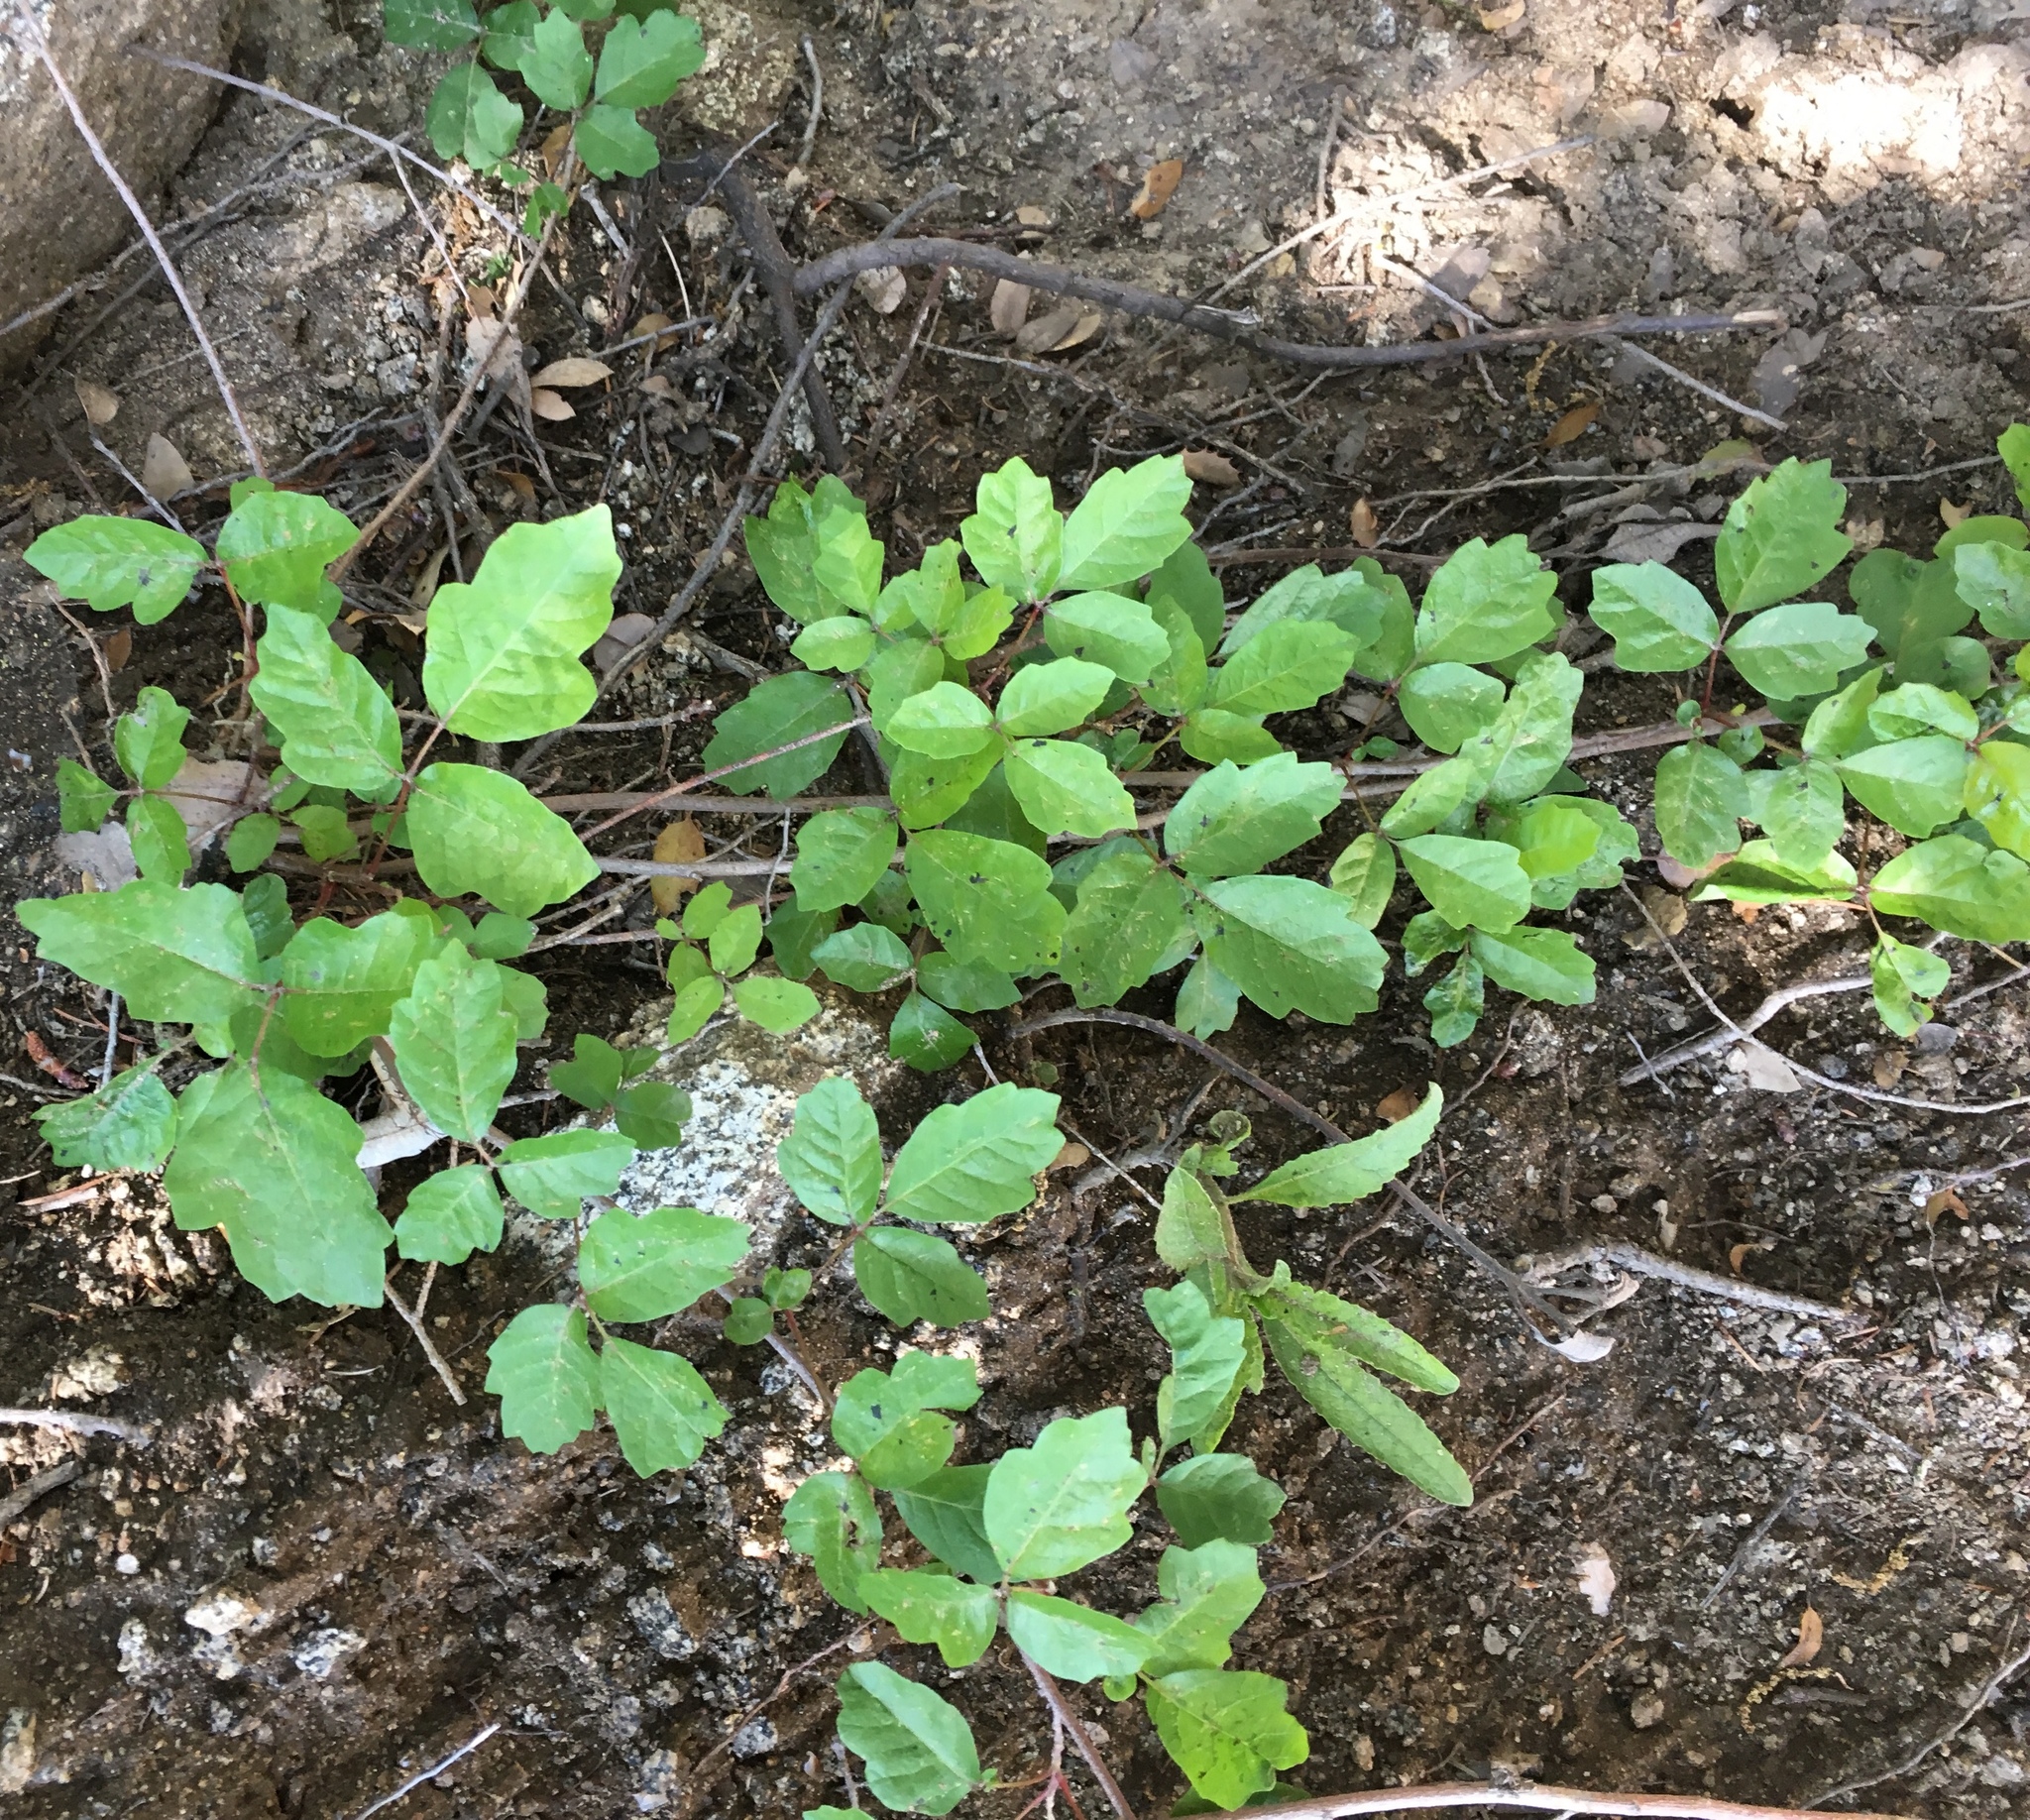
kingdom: Plantae
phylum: Tracheophyta
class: Magnoliopsida
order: Sapindales
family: Anacardiaceae
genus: Toxicodendron
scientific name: Toxicodendron diversilobum
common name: Pacific poison-oak
